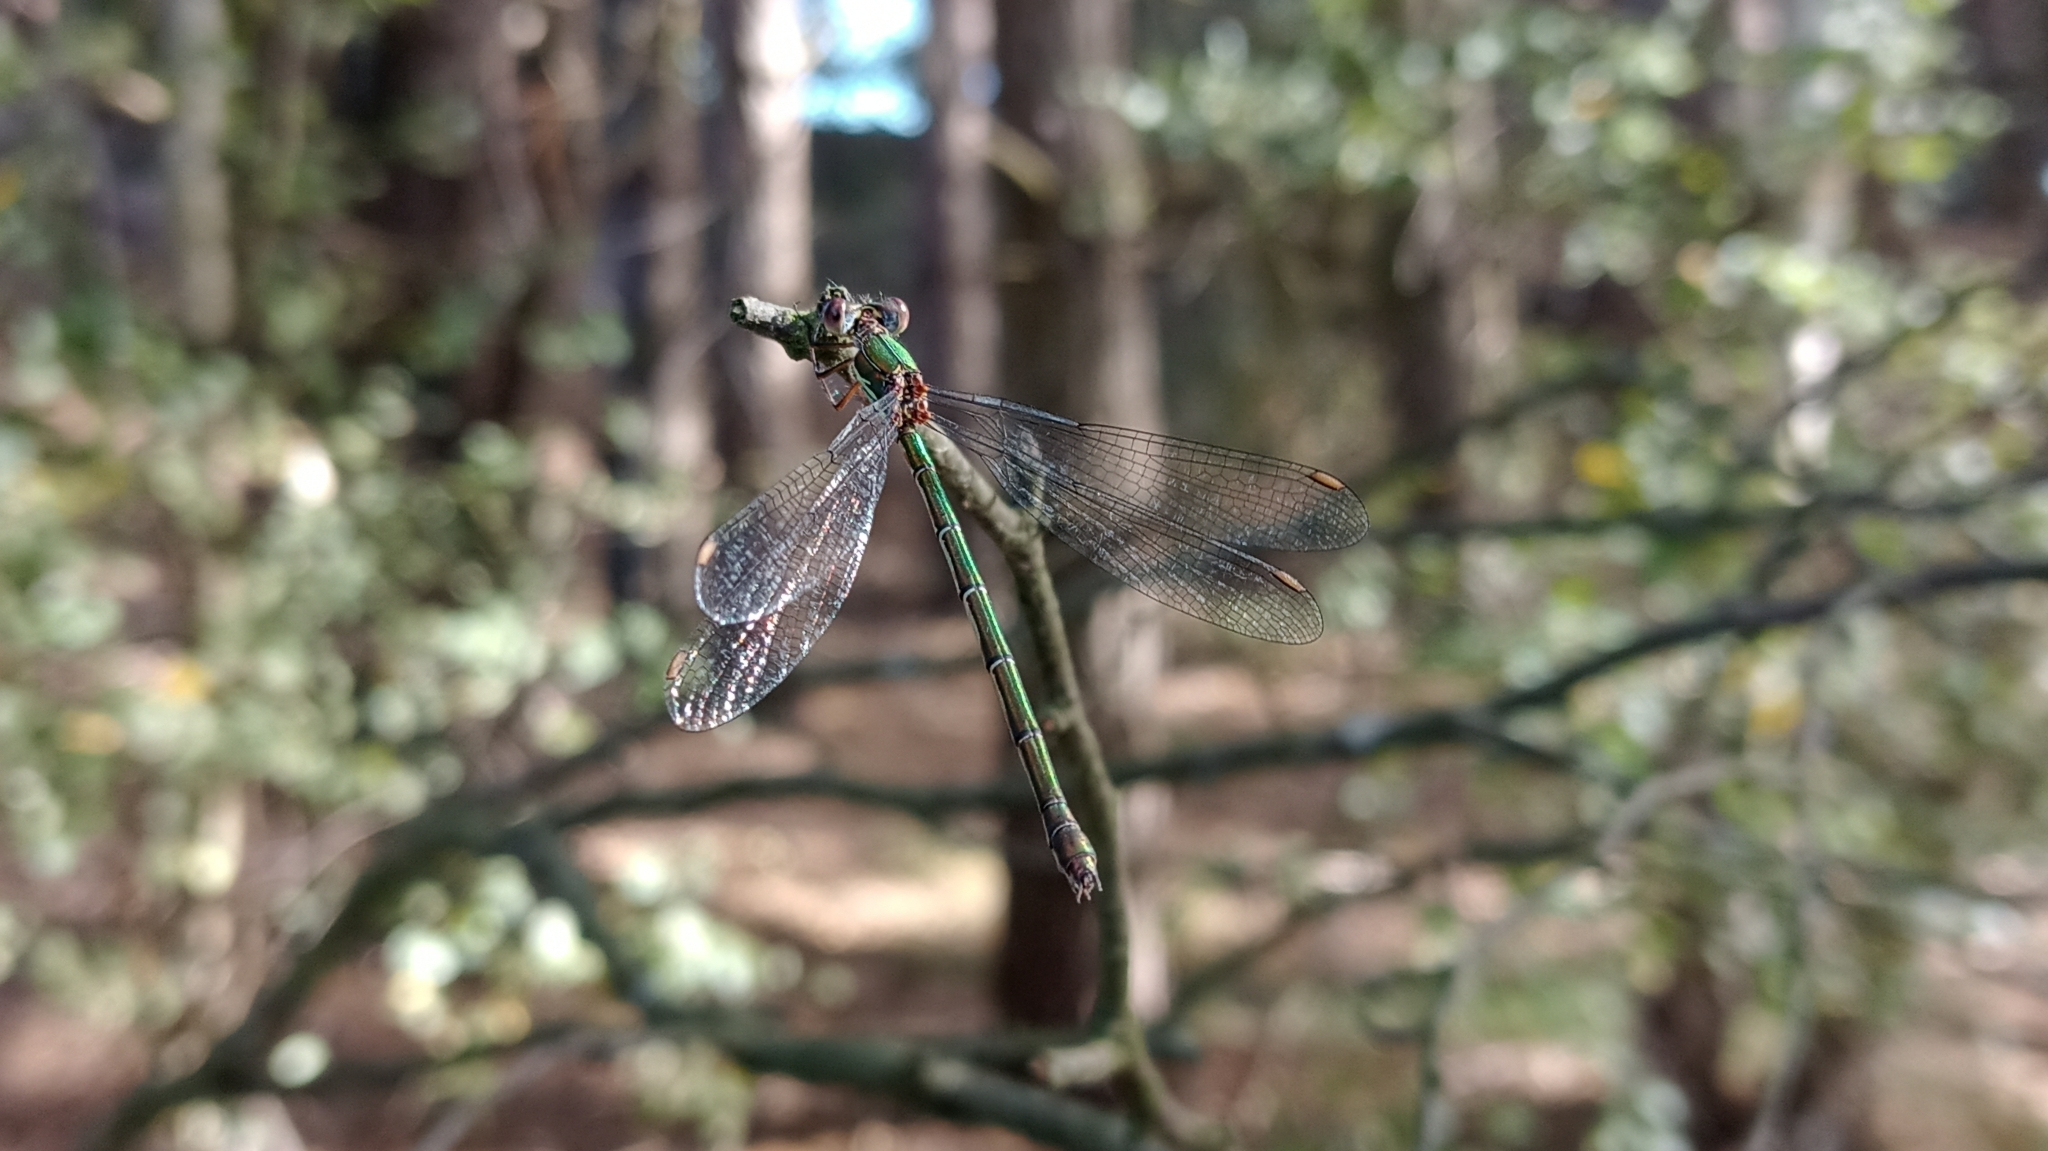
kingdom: Animalia
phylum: Arthropoda
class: Insecta
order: Odonata
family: Lestidae
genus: Chalcolestes
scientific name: Chalcolestes viridis
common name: Green emerald damselfly
